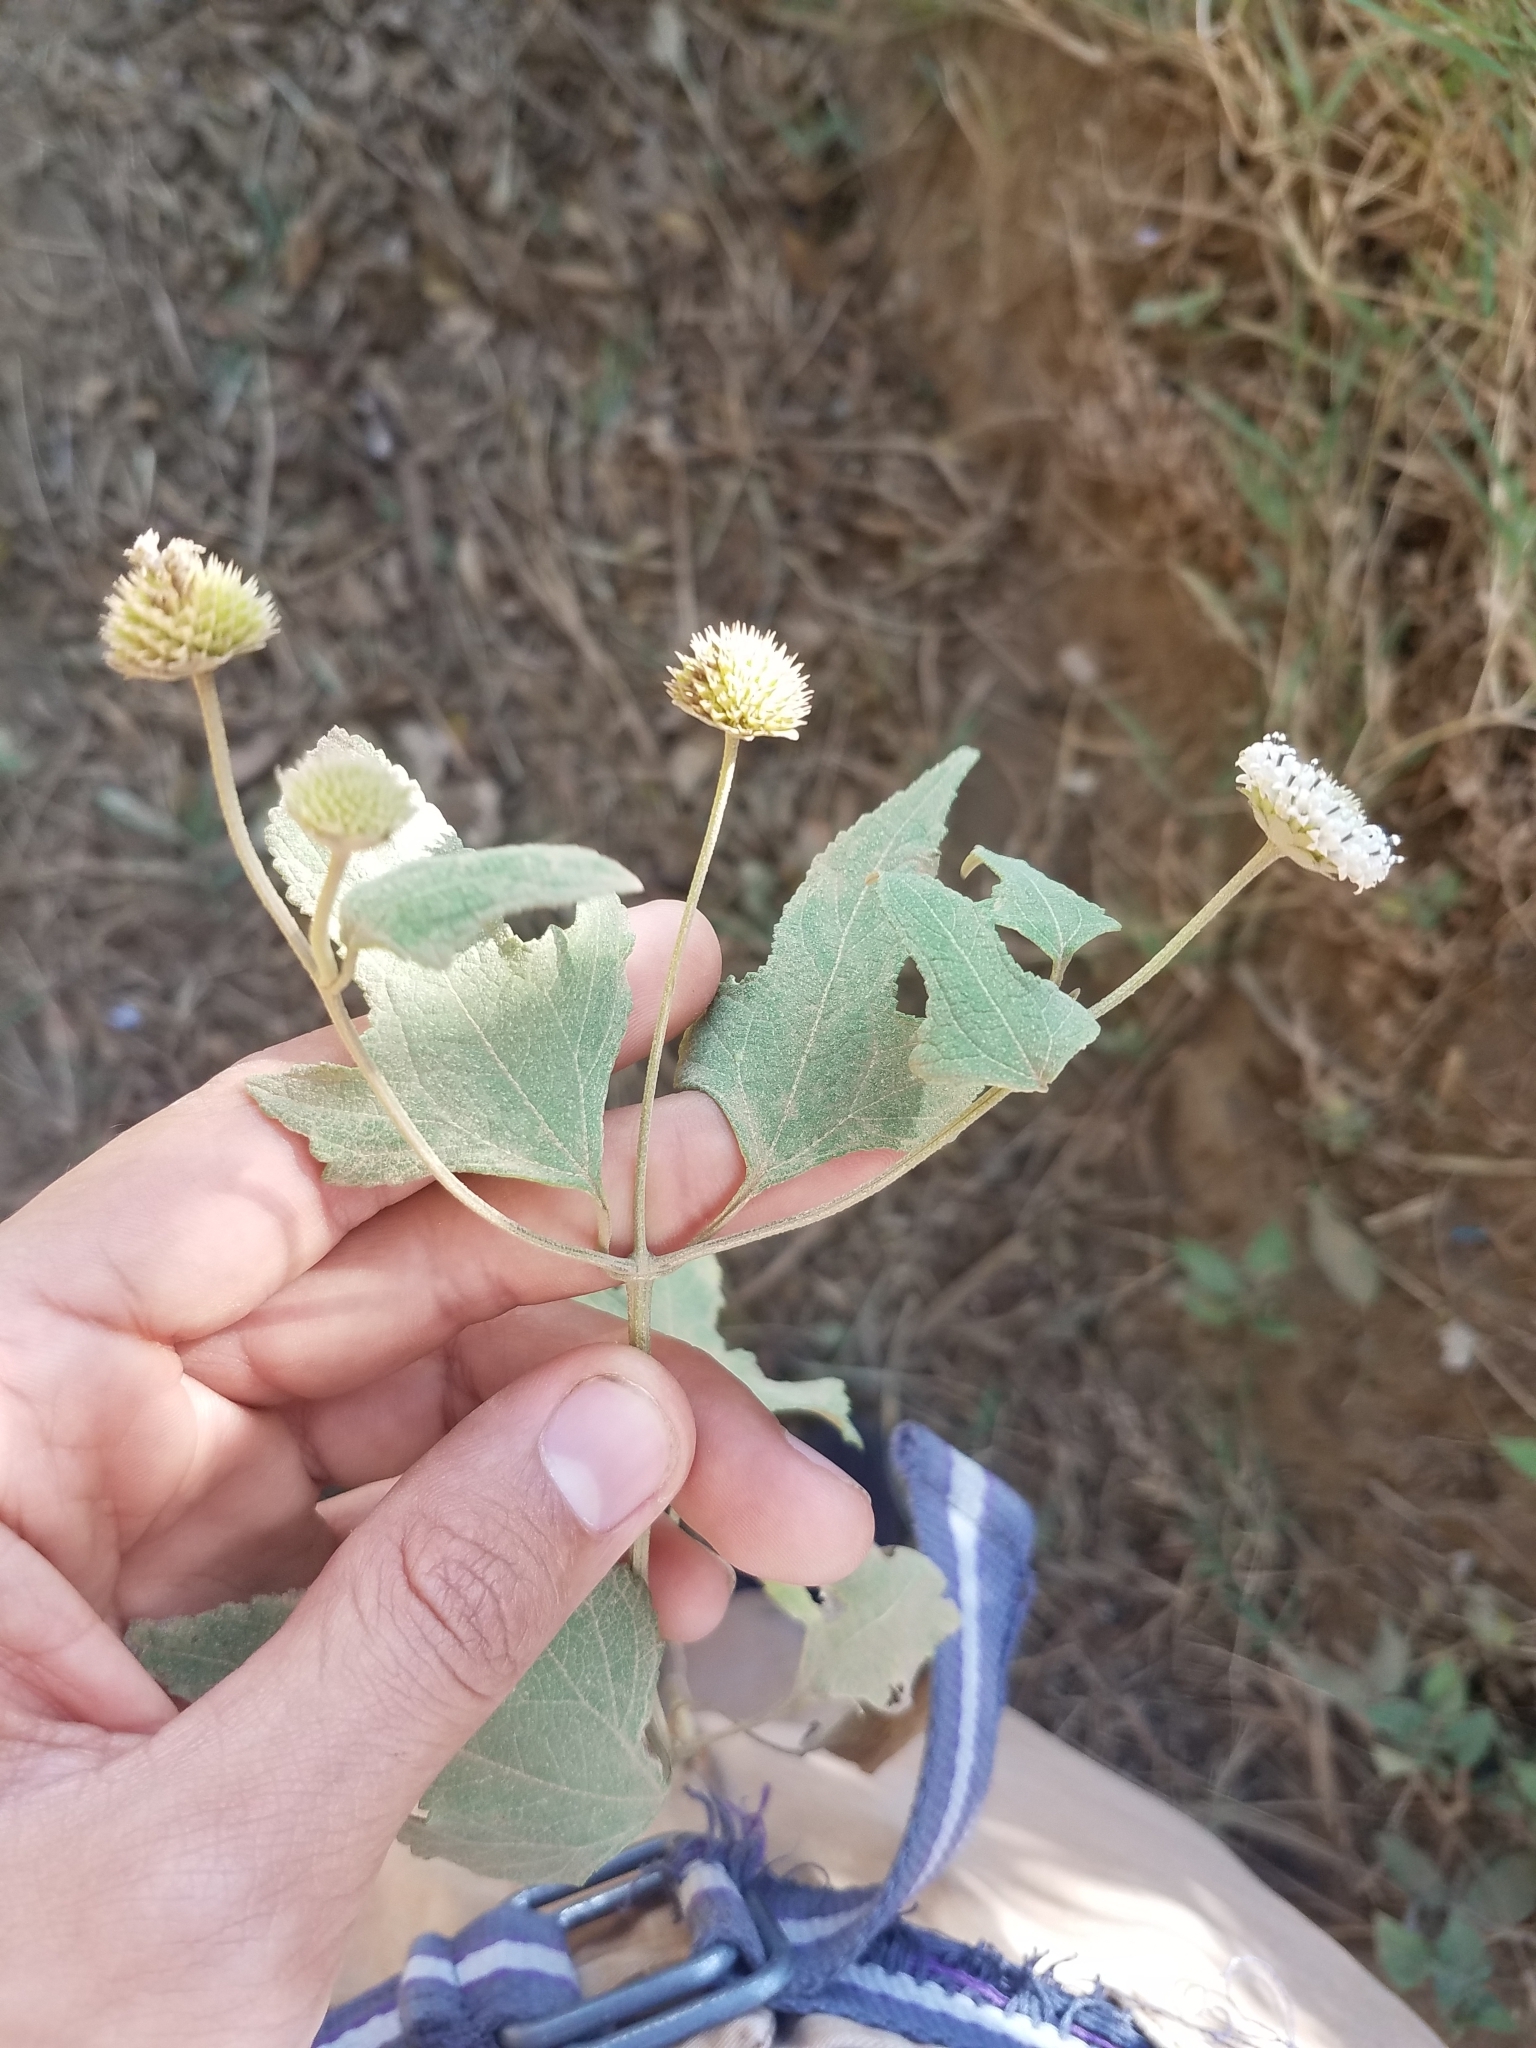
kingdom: Plantae
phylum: Tracheophyta
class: Magnoliopsida
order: Asterales
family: Asteraceae
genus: Melanthera
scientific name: Melanthera nivea
